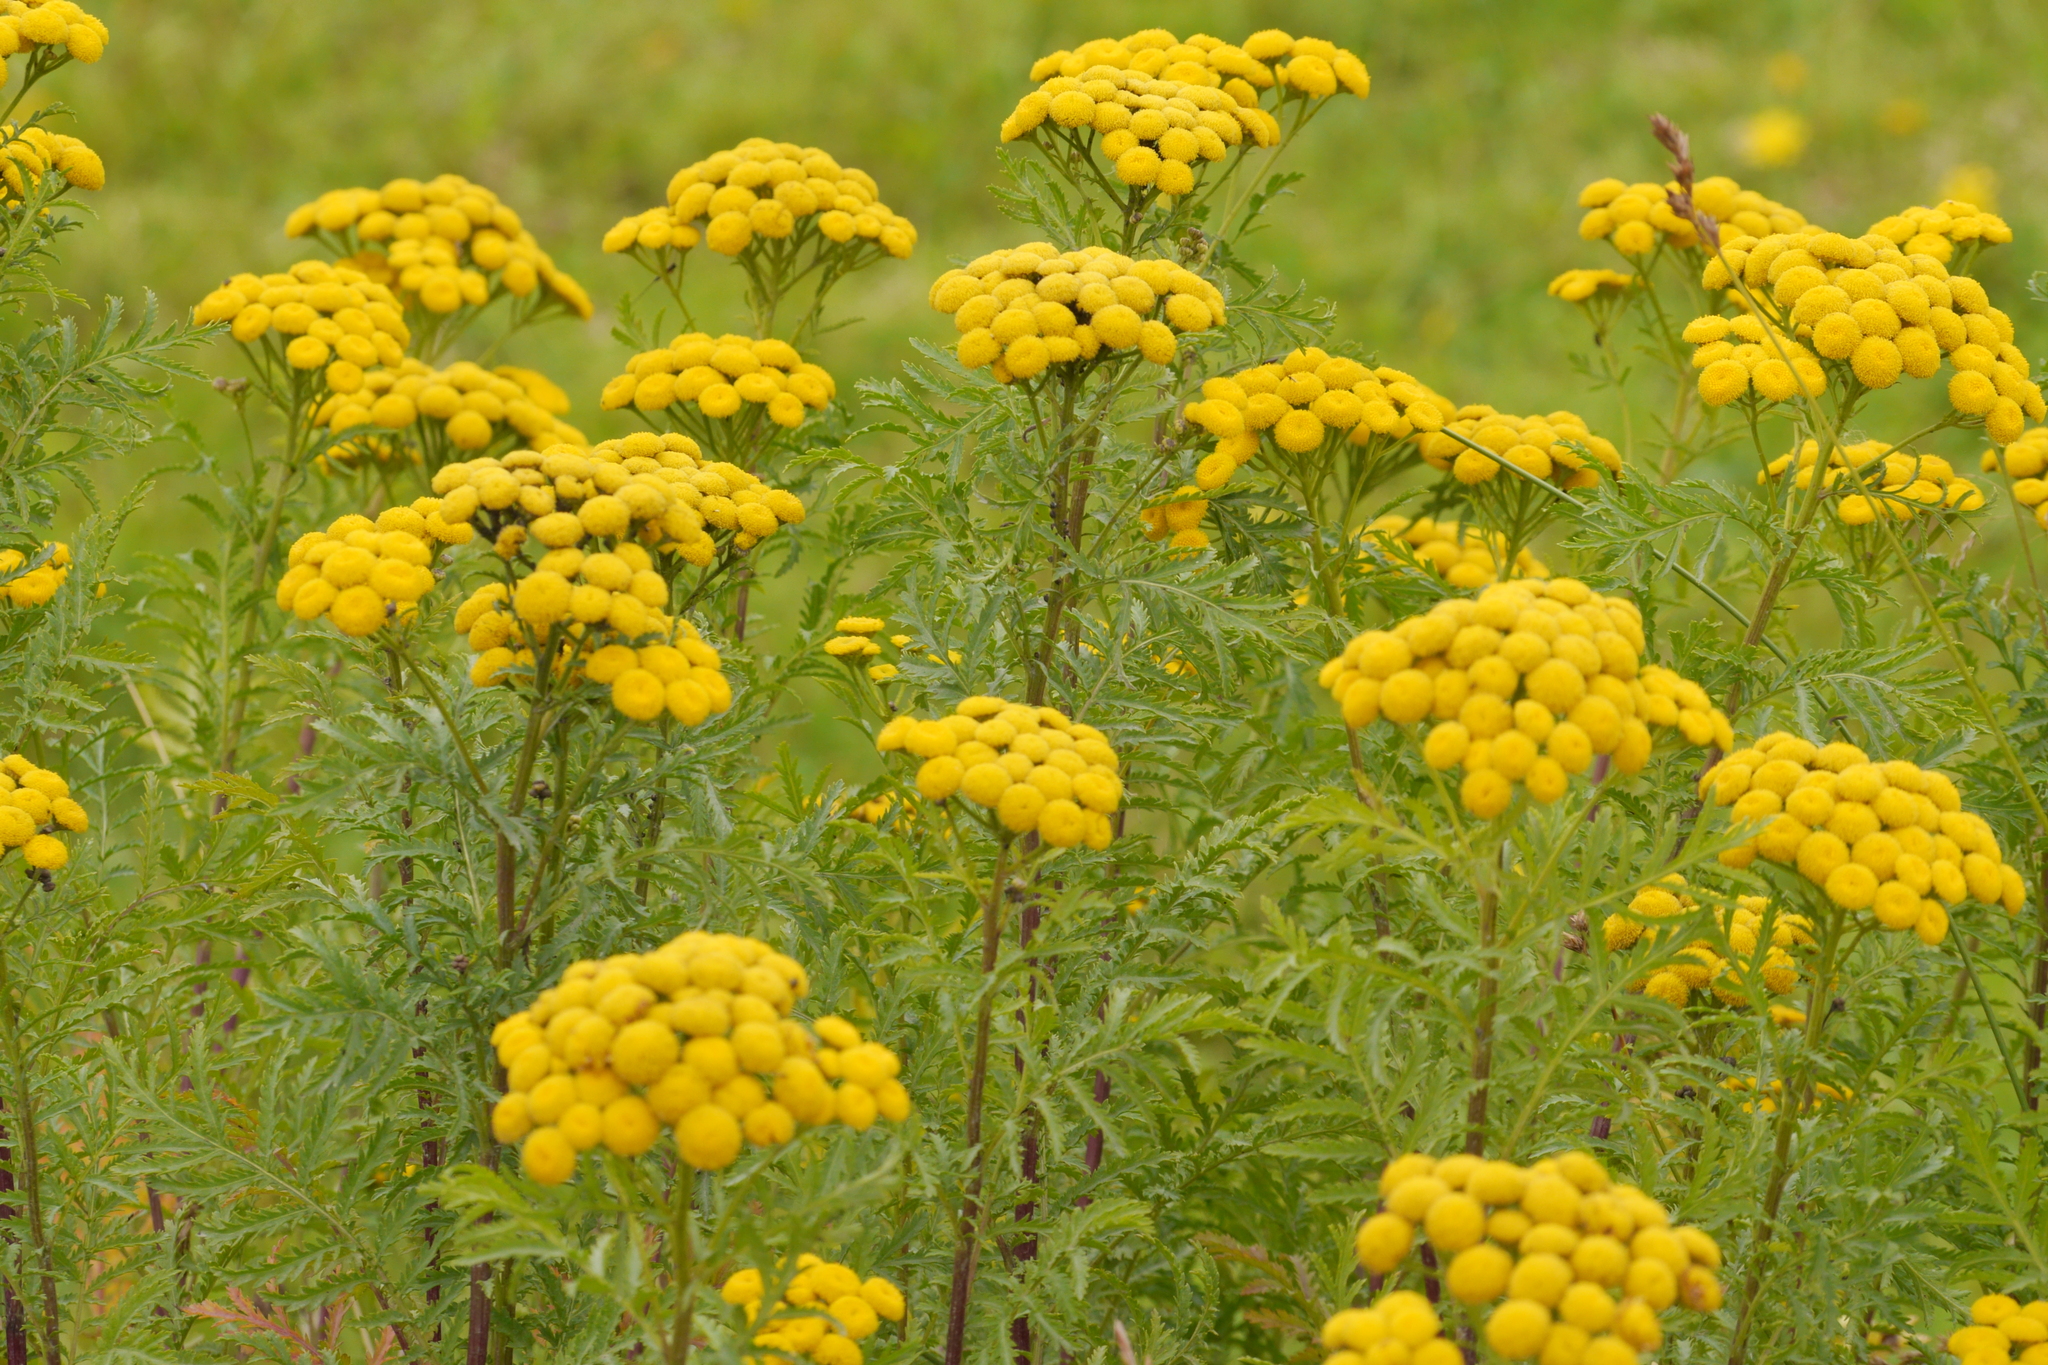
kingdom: Plantae
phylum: Tracheophyta
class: Magnoliopsida
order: Asterales
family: Asteraceae
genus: Tanacetum
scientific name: Tanacetum vulgare
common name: Common tansy
